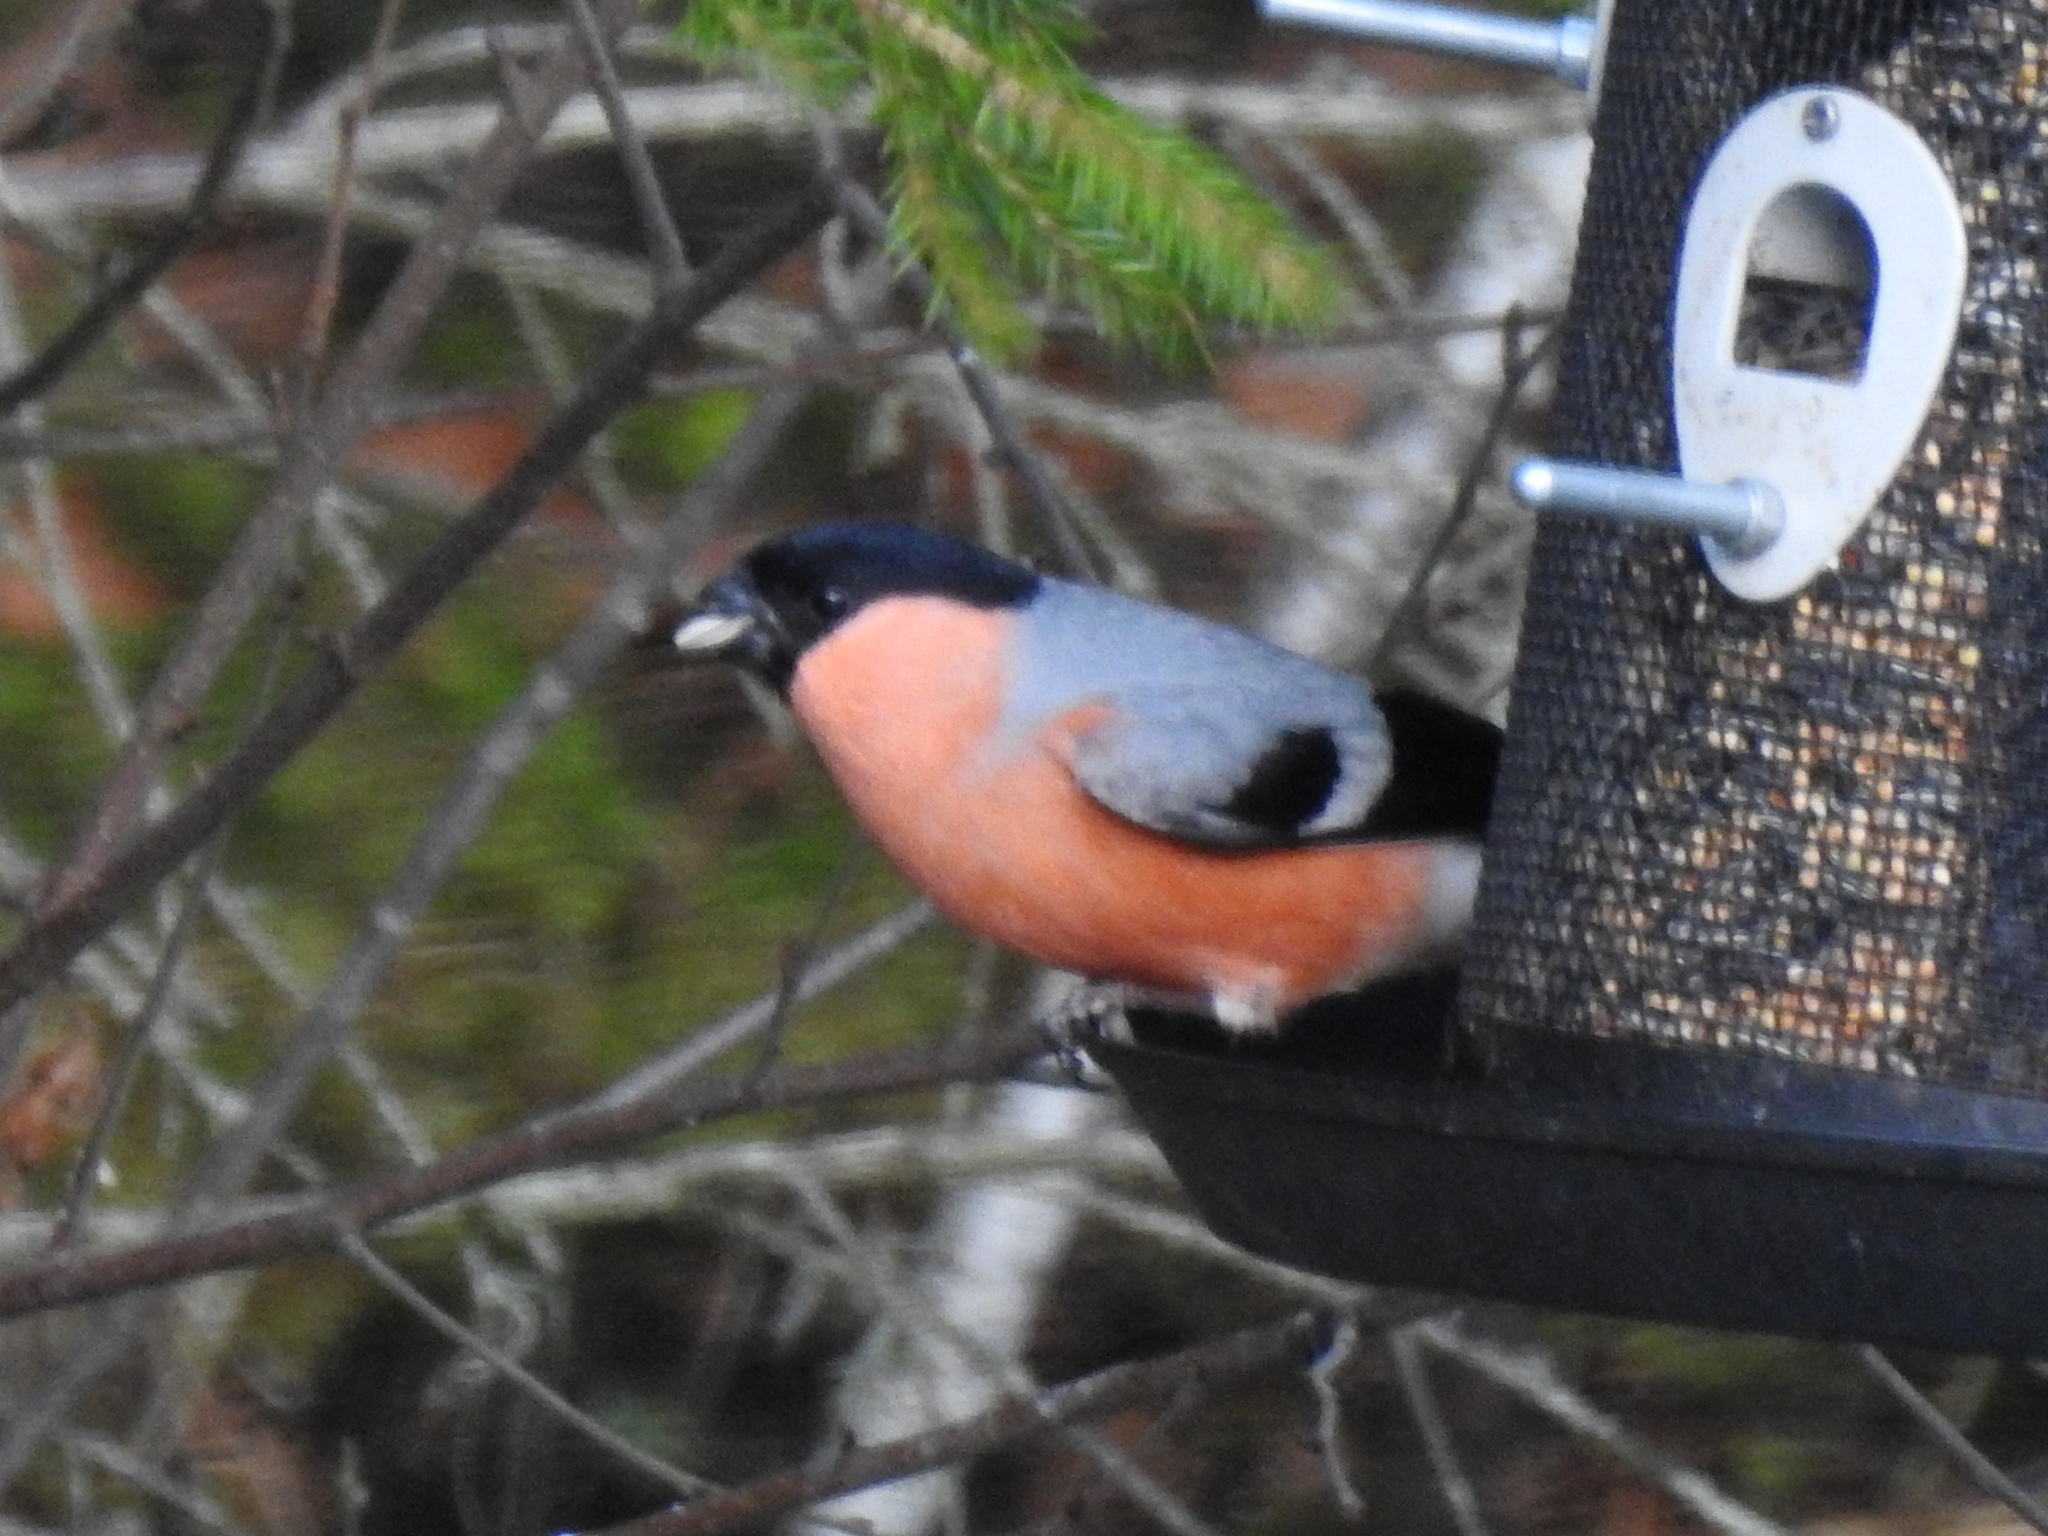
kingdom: Animalia
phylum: Chordata
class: Aves
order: Passeriformes
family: Fringillidae
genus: Pyrrhula
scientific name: Pyrrhula pyrrhula
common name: Eurasian bullfinch
